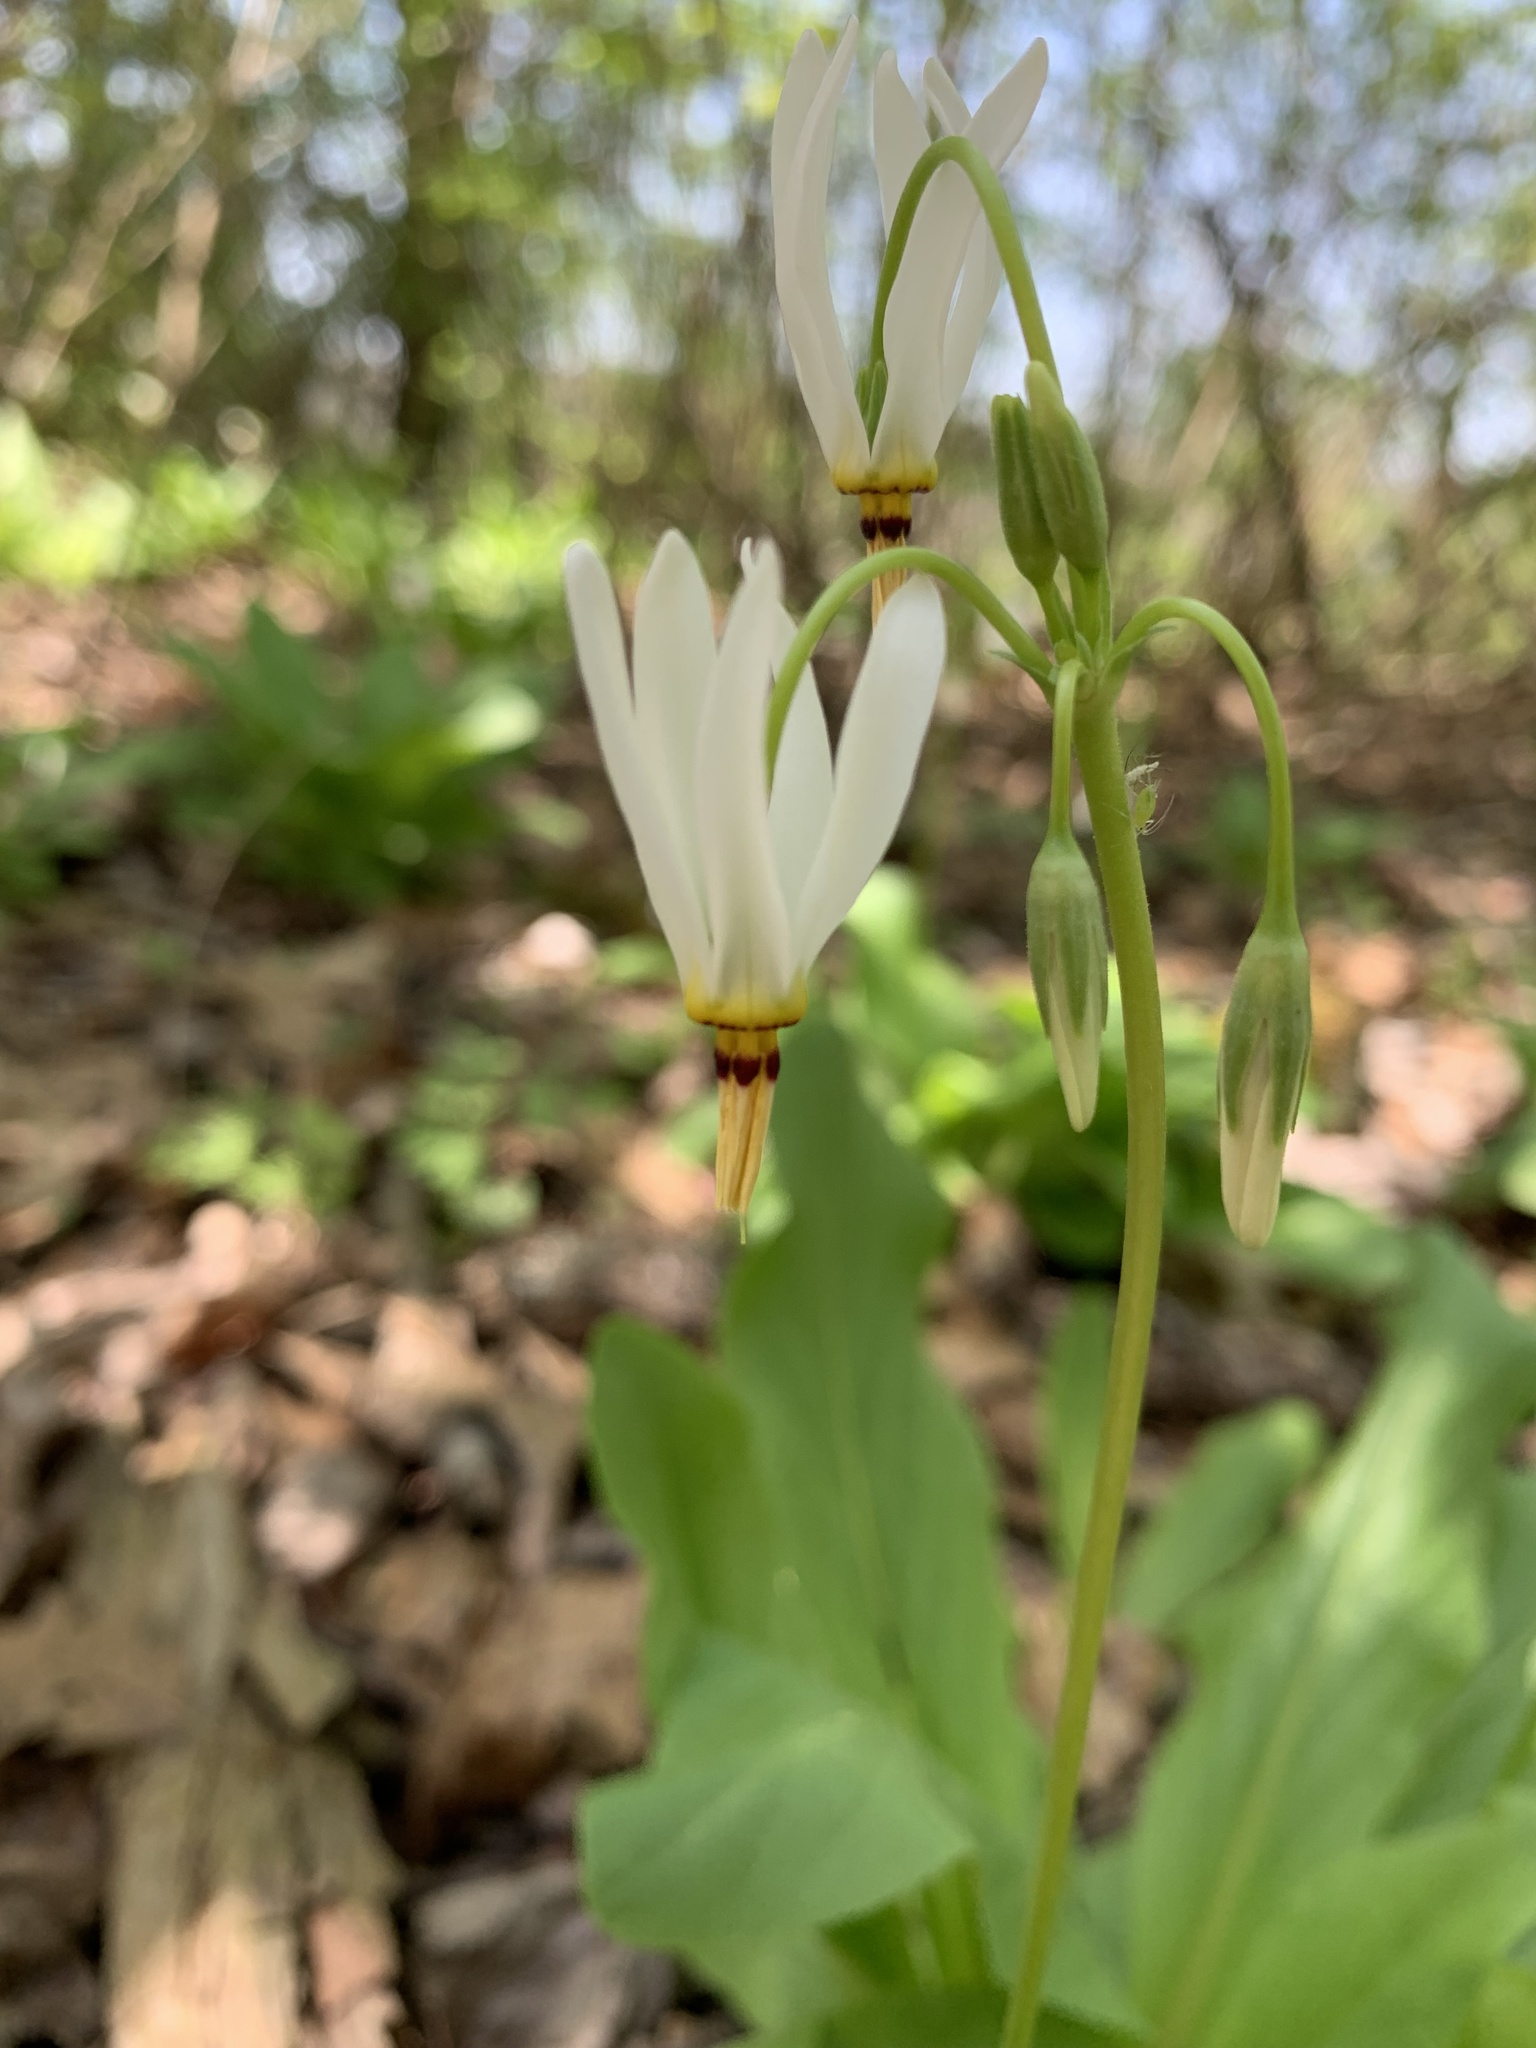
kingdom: Plantae
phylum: Tracheophyta
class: Magnoliopsida
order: Ericales
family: Primulaceae
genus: Dodecatheon
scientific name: Dodecatheon meadia
